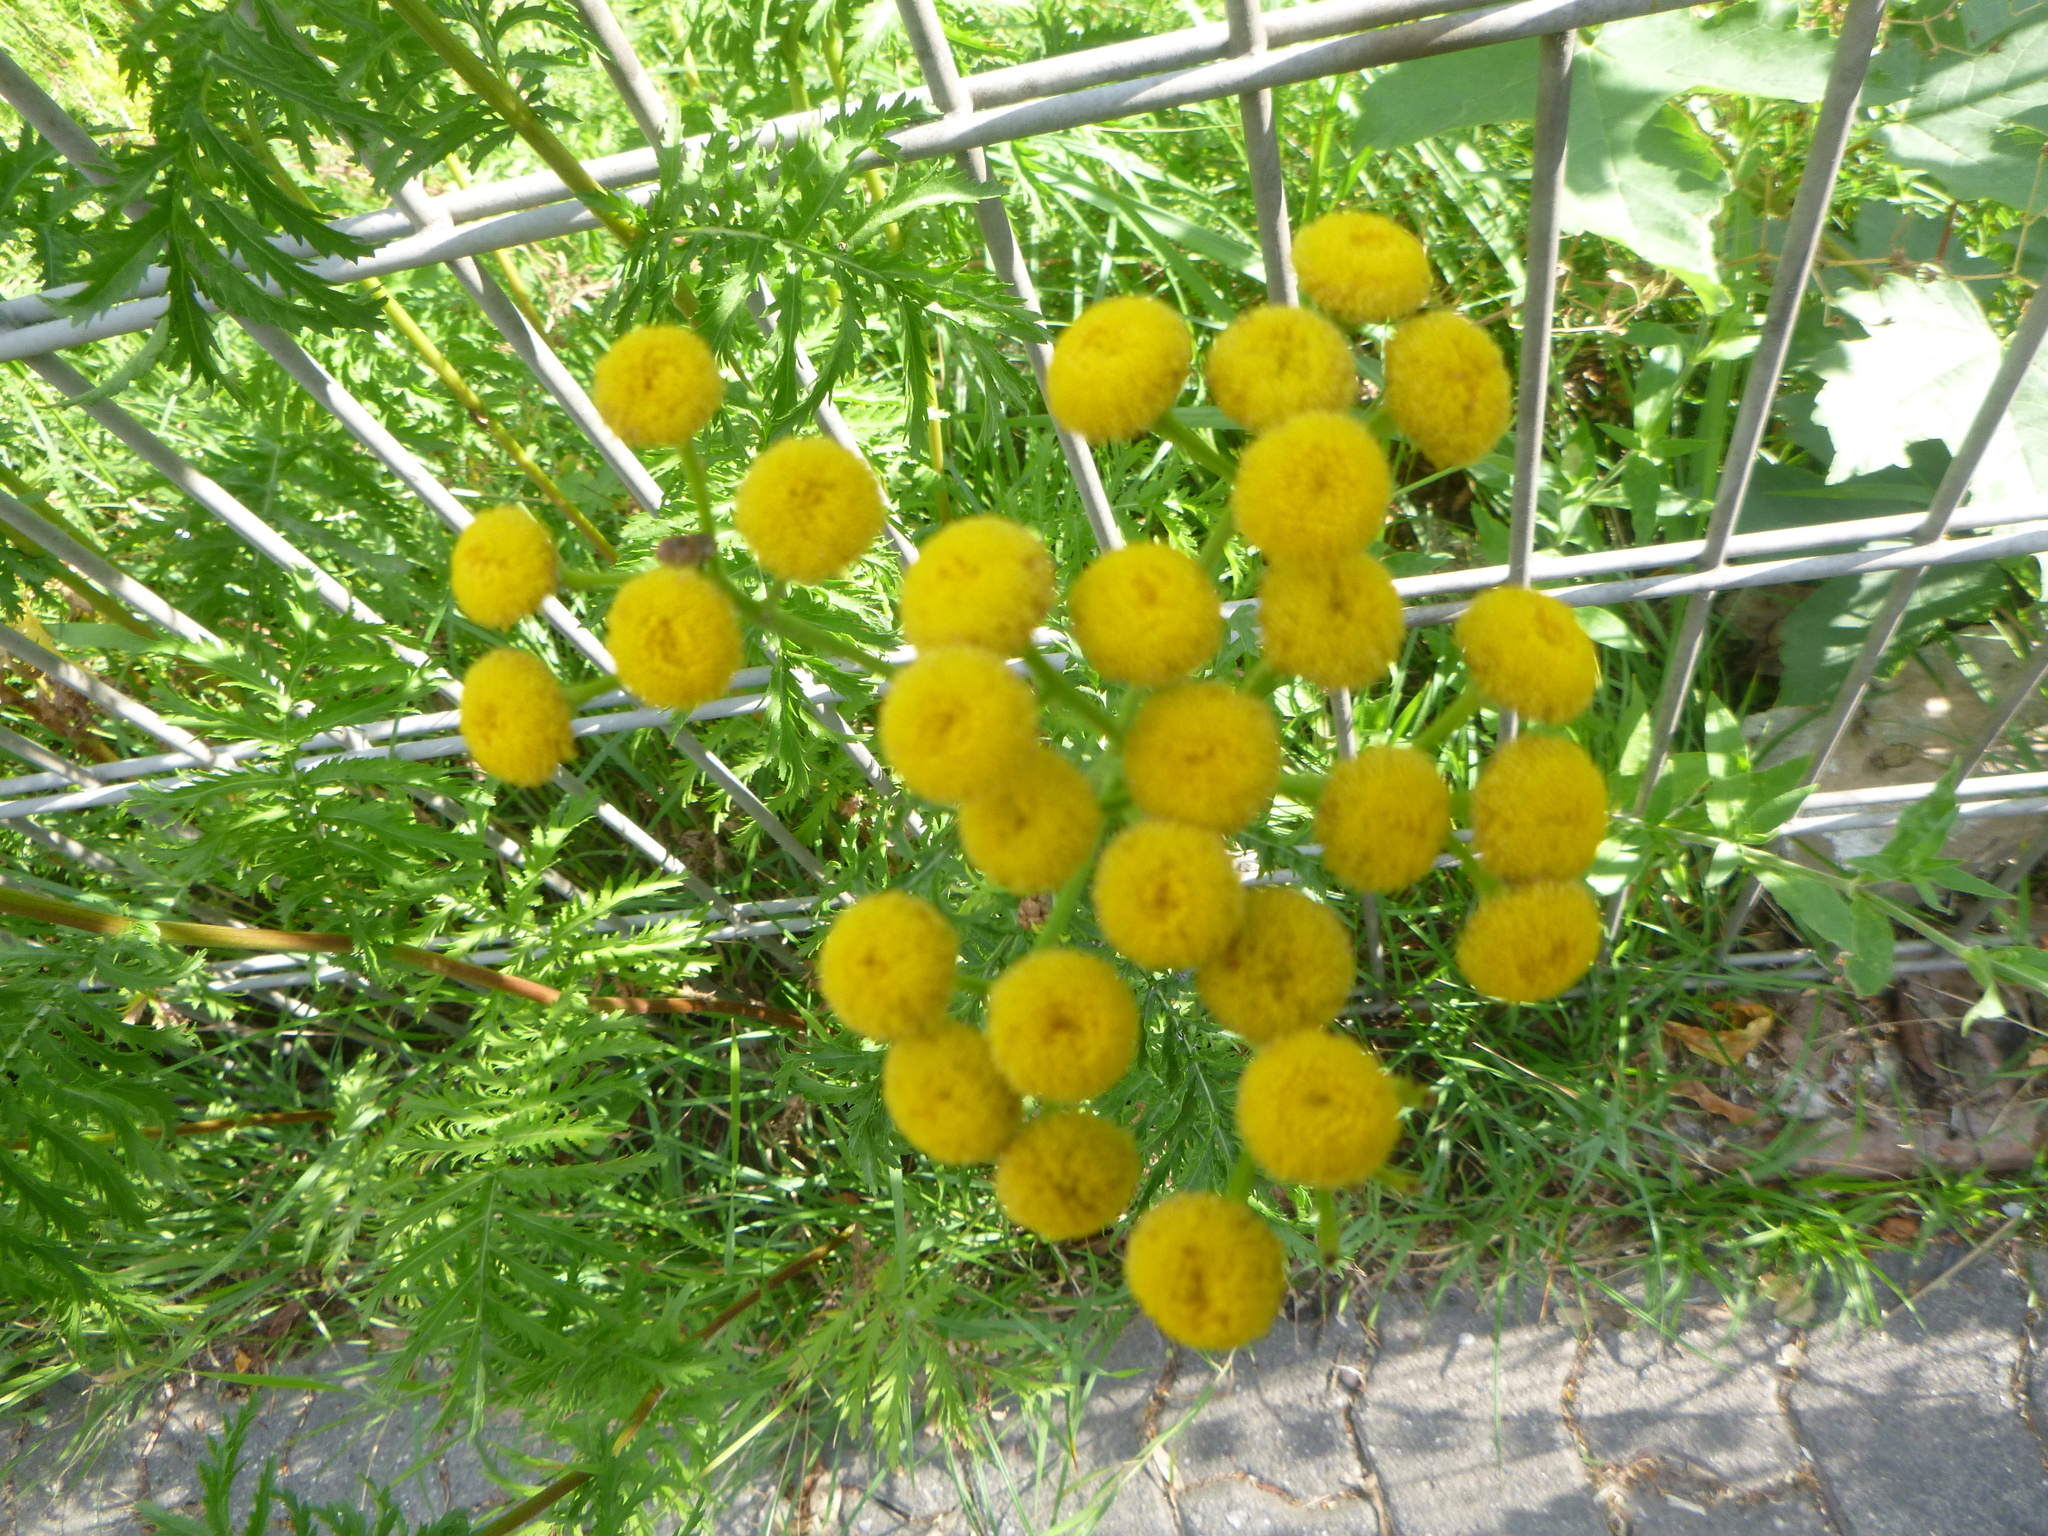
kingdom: Plantae
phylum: Tracheophyta
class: Magnoliopsida
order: Asterales
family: Asteraceae
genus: Tanacetum
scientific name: Tanacetum vulgare
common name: Common tansy
